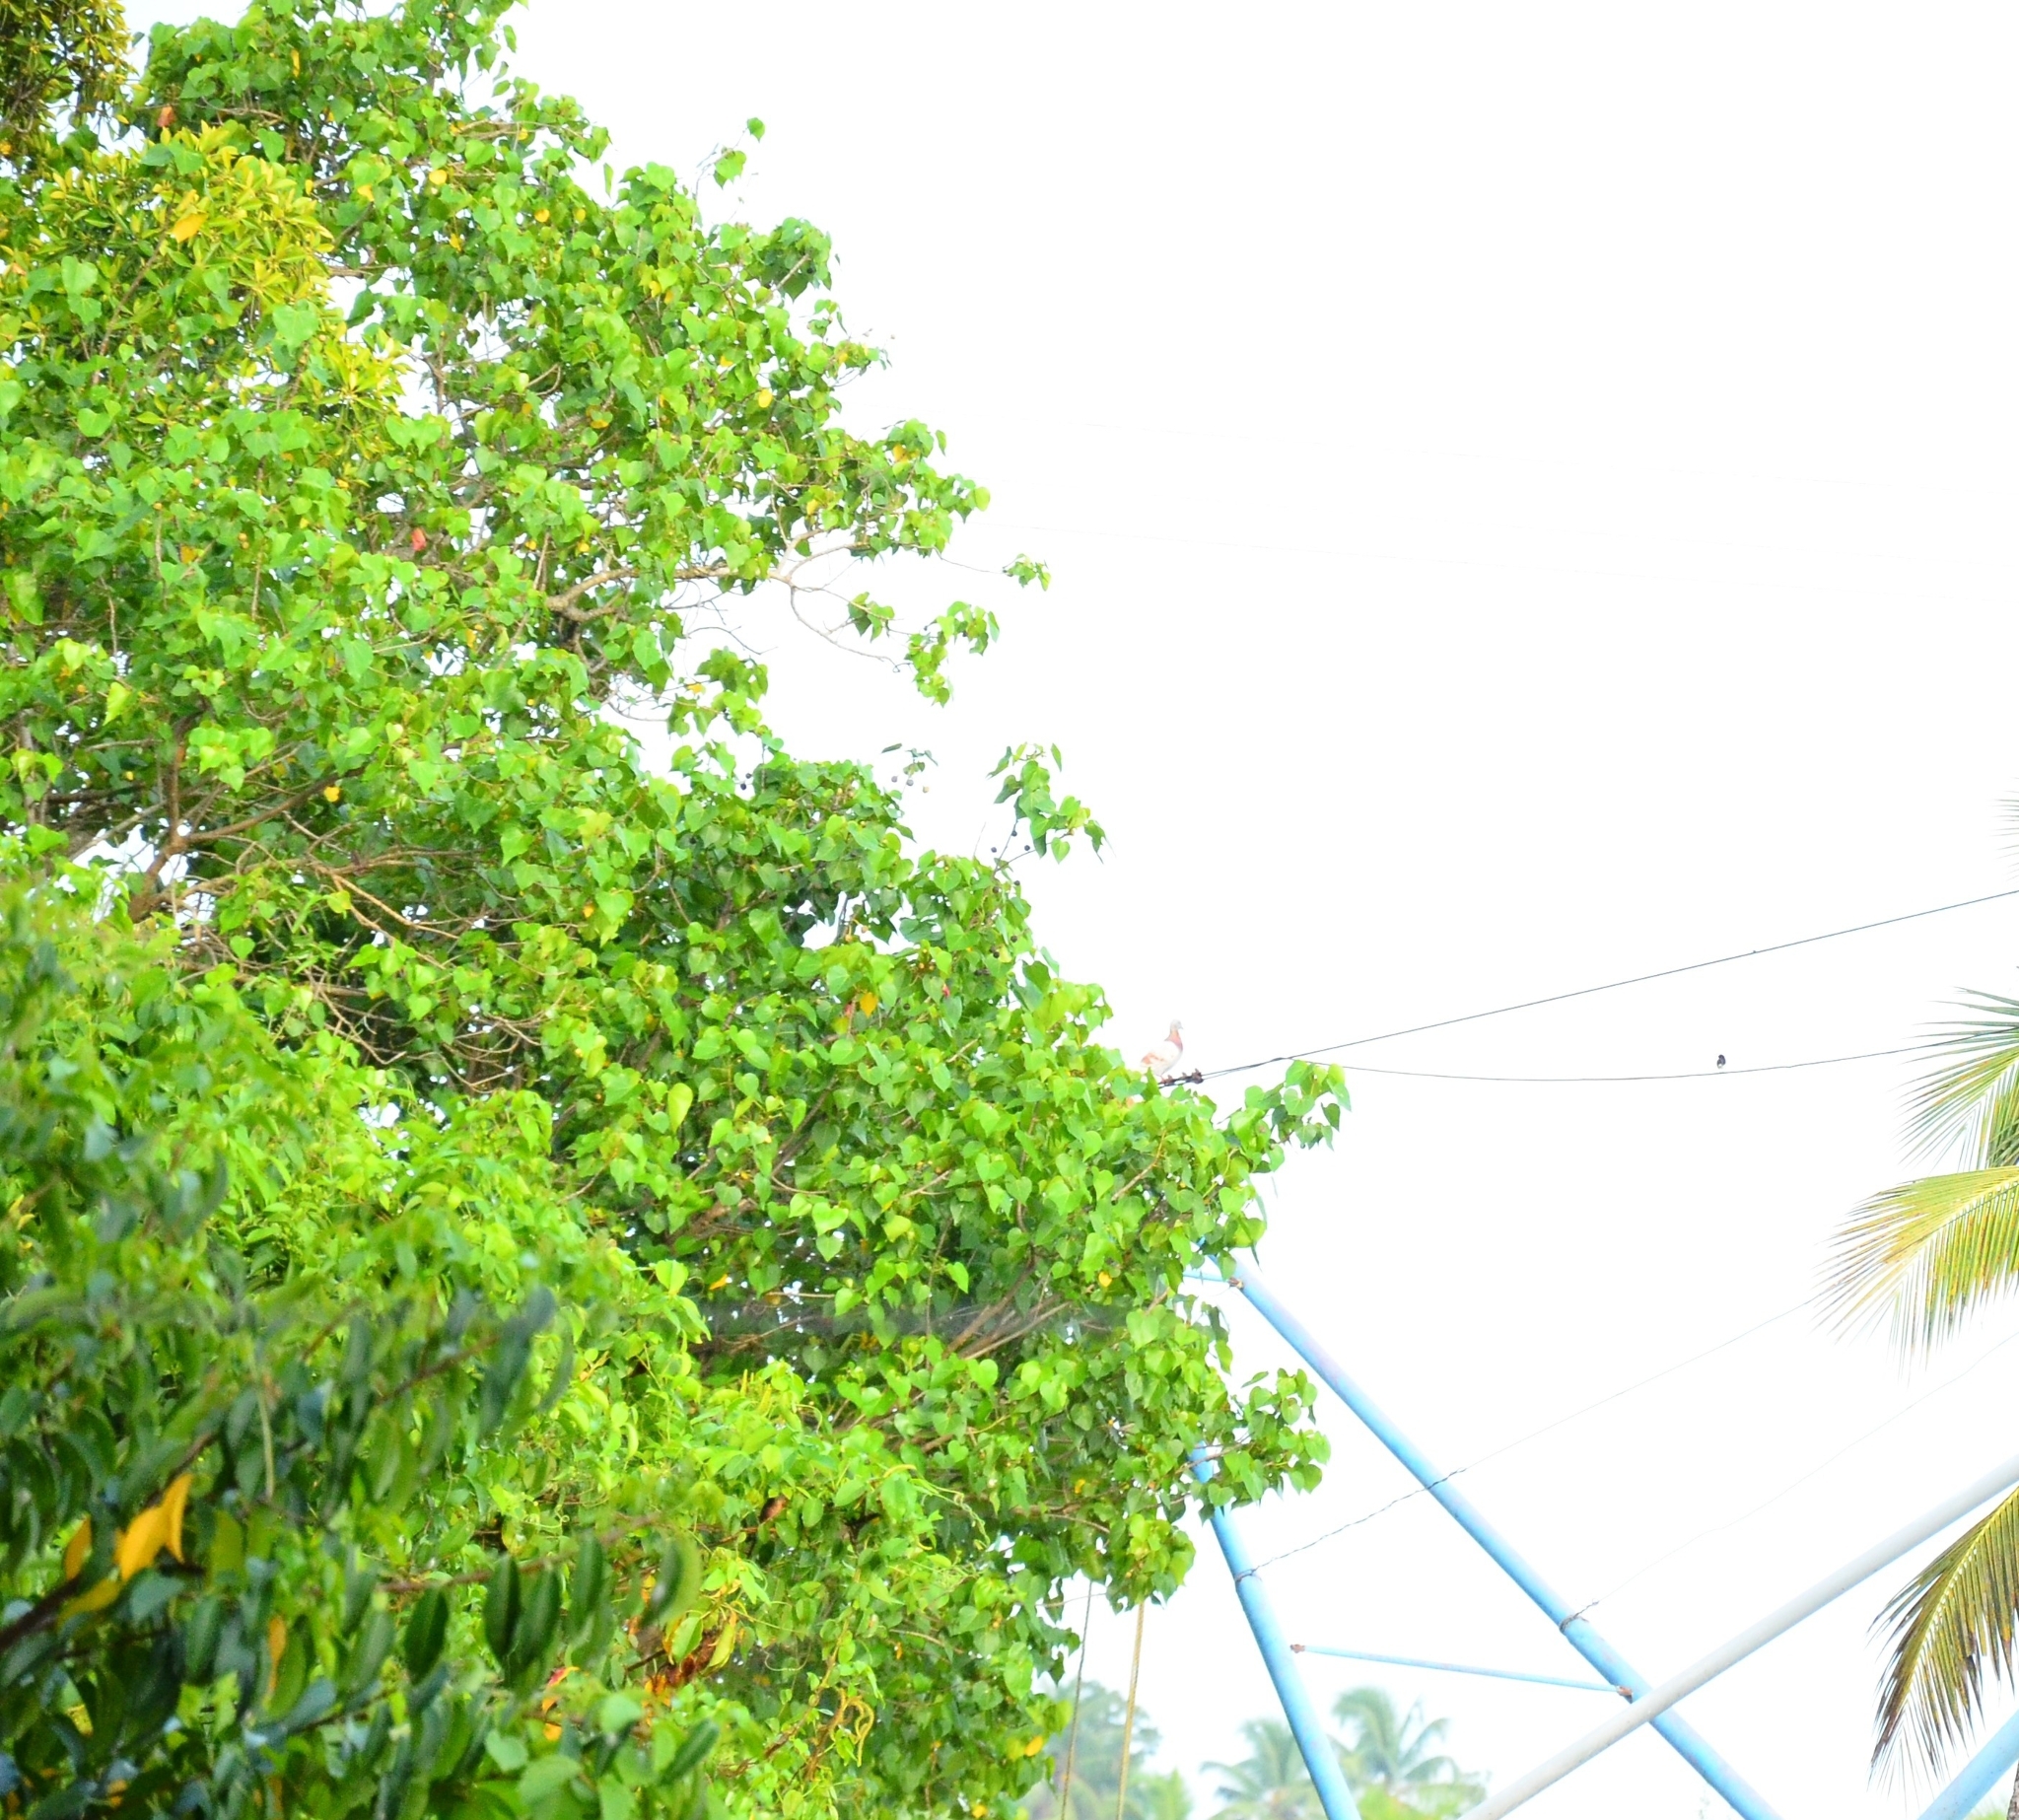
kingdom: Plantae
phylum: Tracheophyta
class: Magnoliopsida
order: Malvales
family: Malvaceae
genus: Thespesia
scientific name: Thespesia populnea
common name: Seaside mahoe
